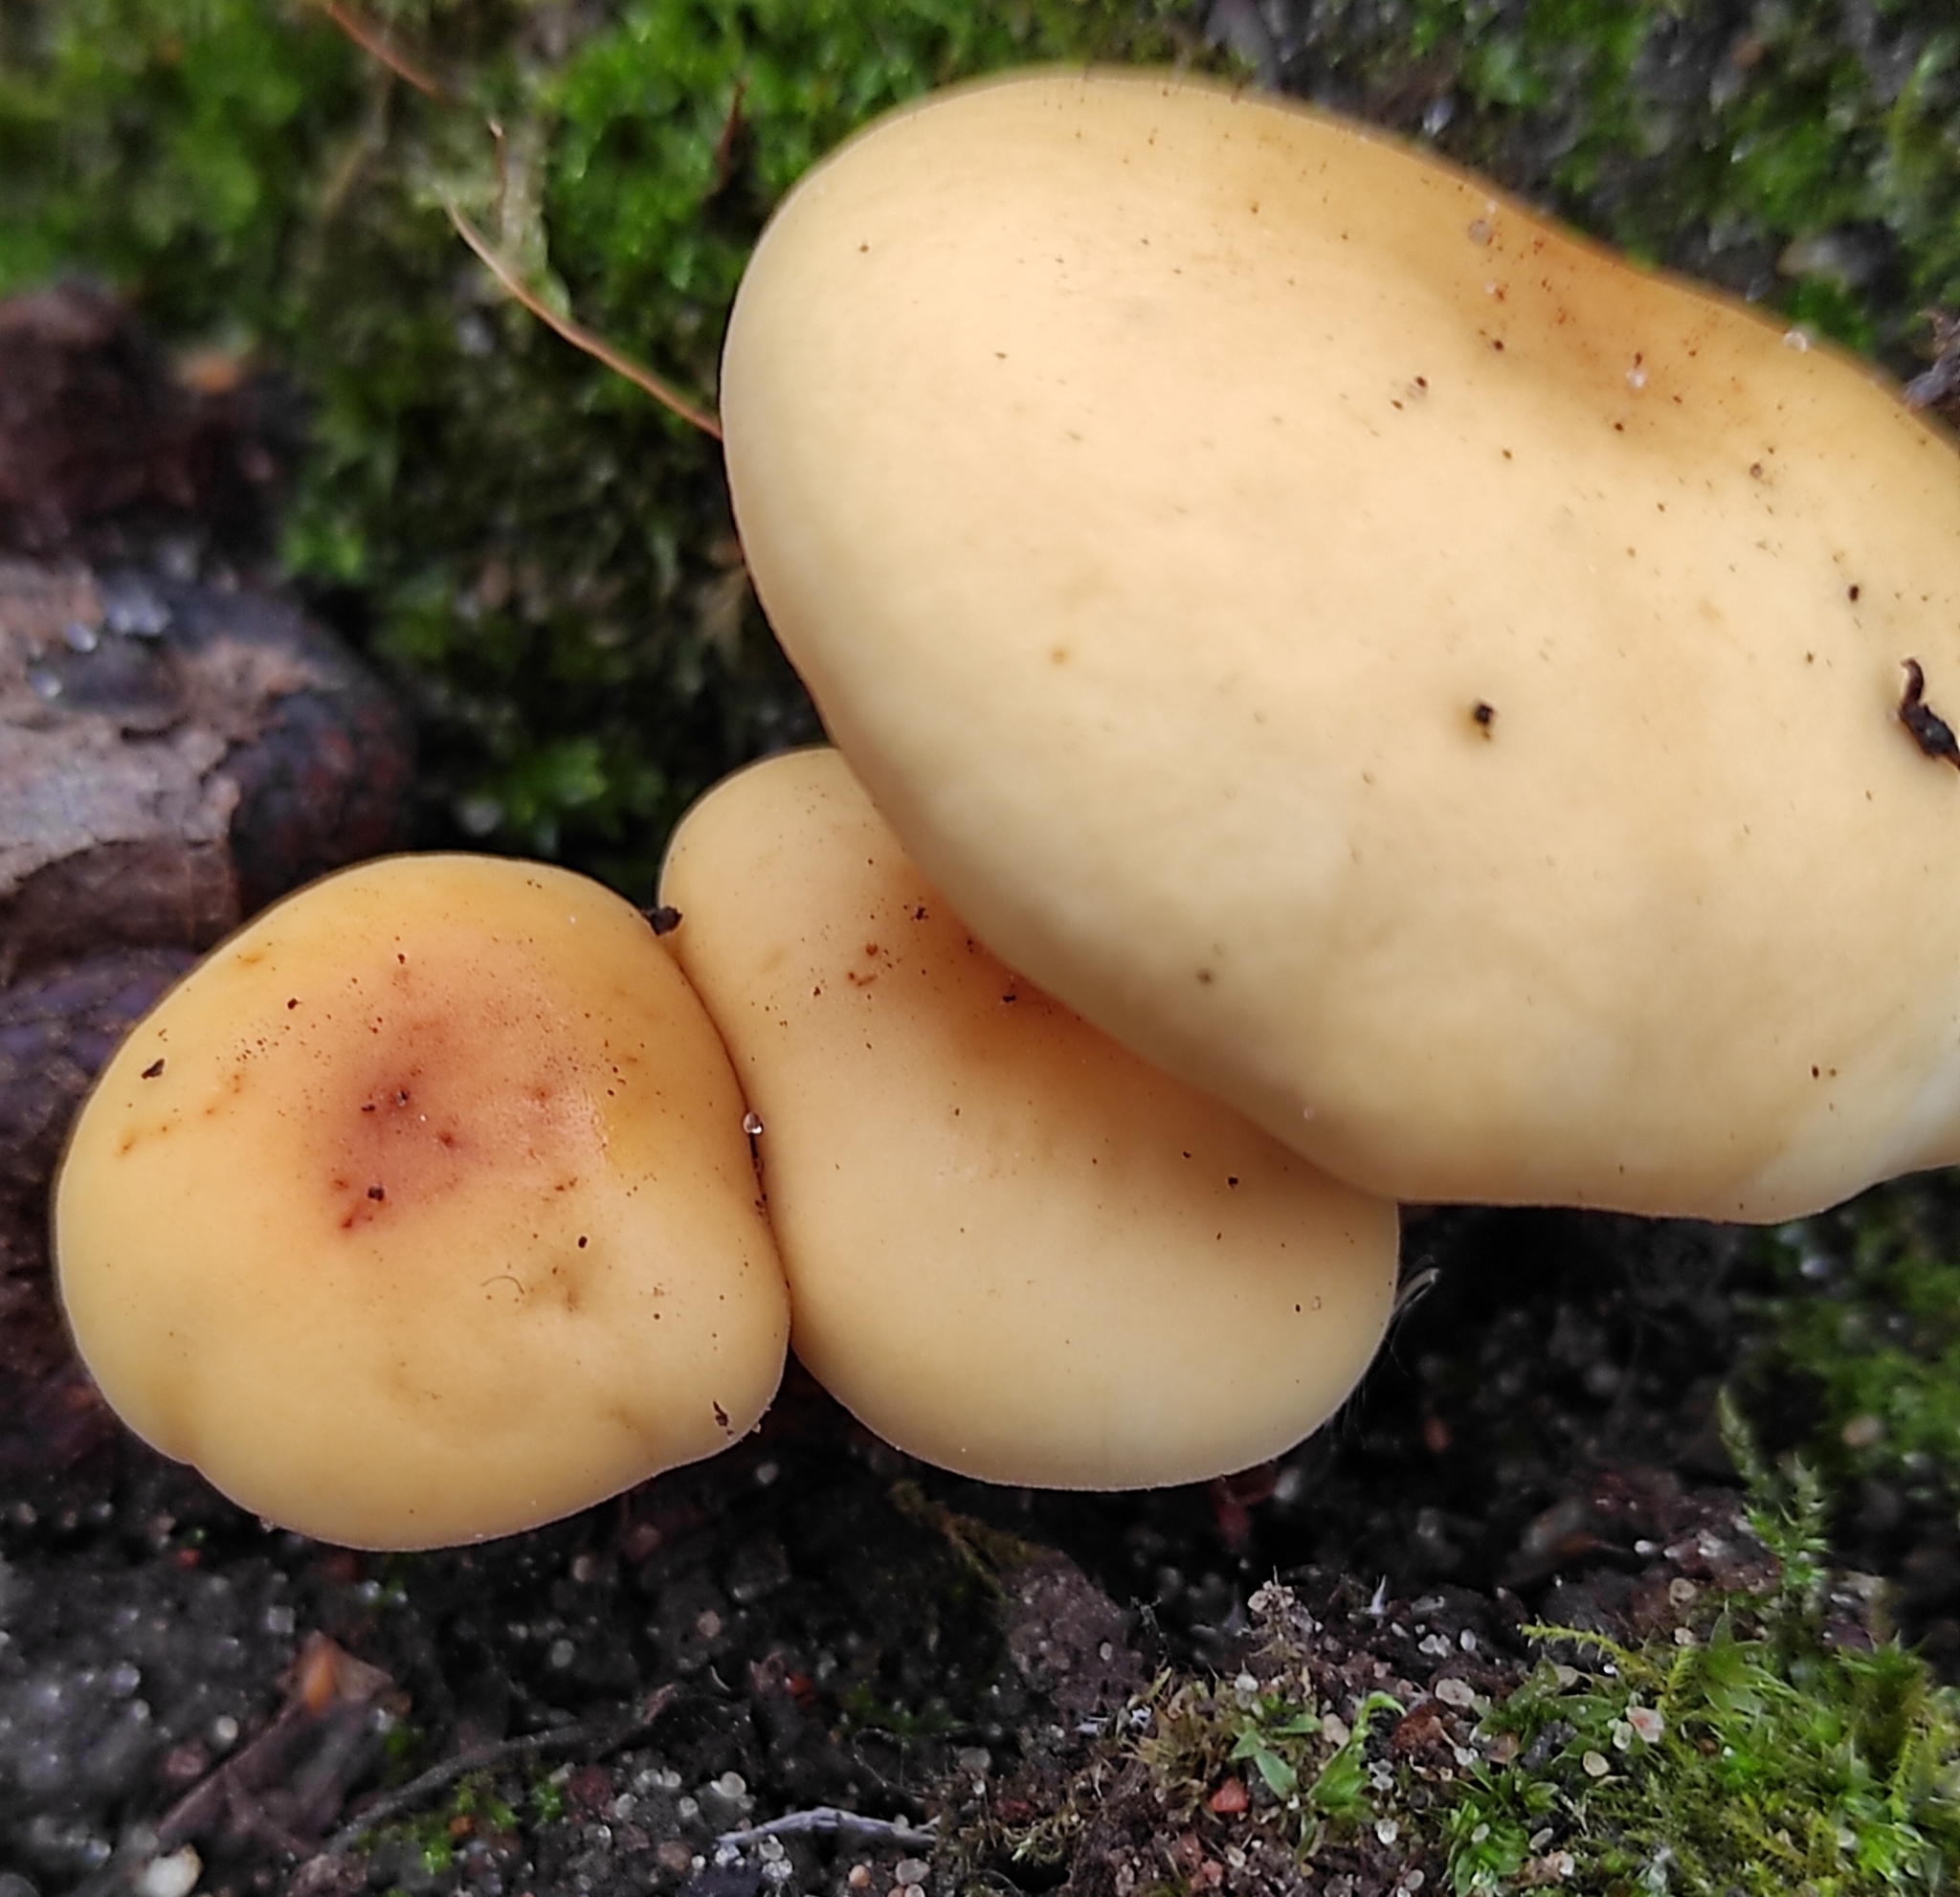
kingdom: Fungi
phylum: Basidiomycota
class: Agaricomycetes
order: Agaricales
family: Physalacriaceae
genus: Flammulina
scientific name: Flammulina
